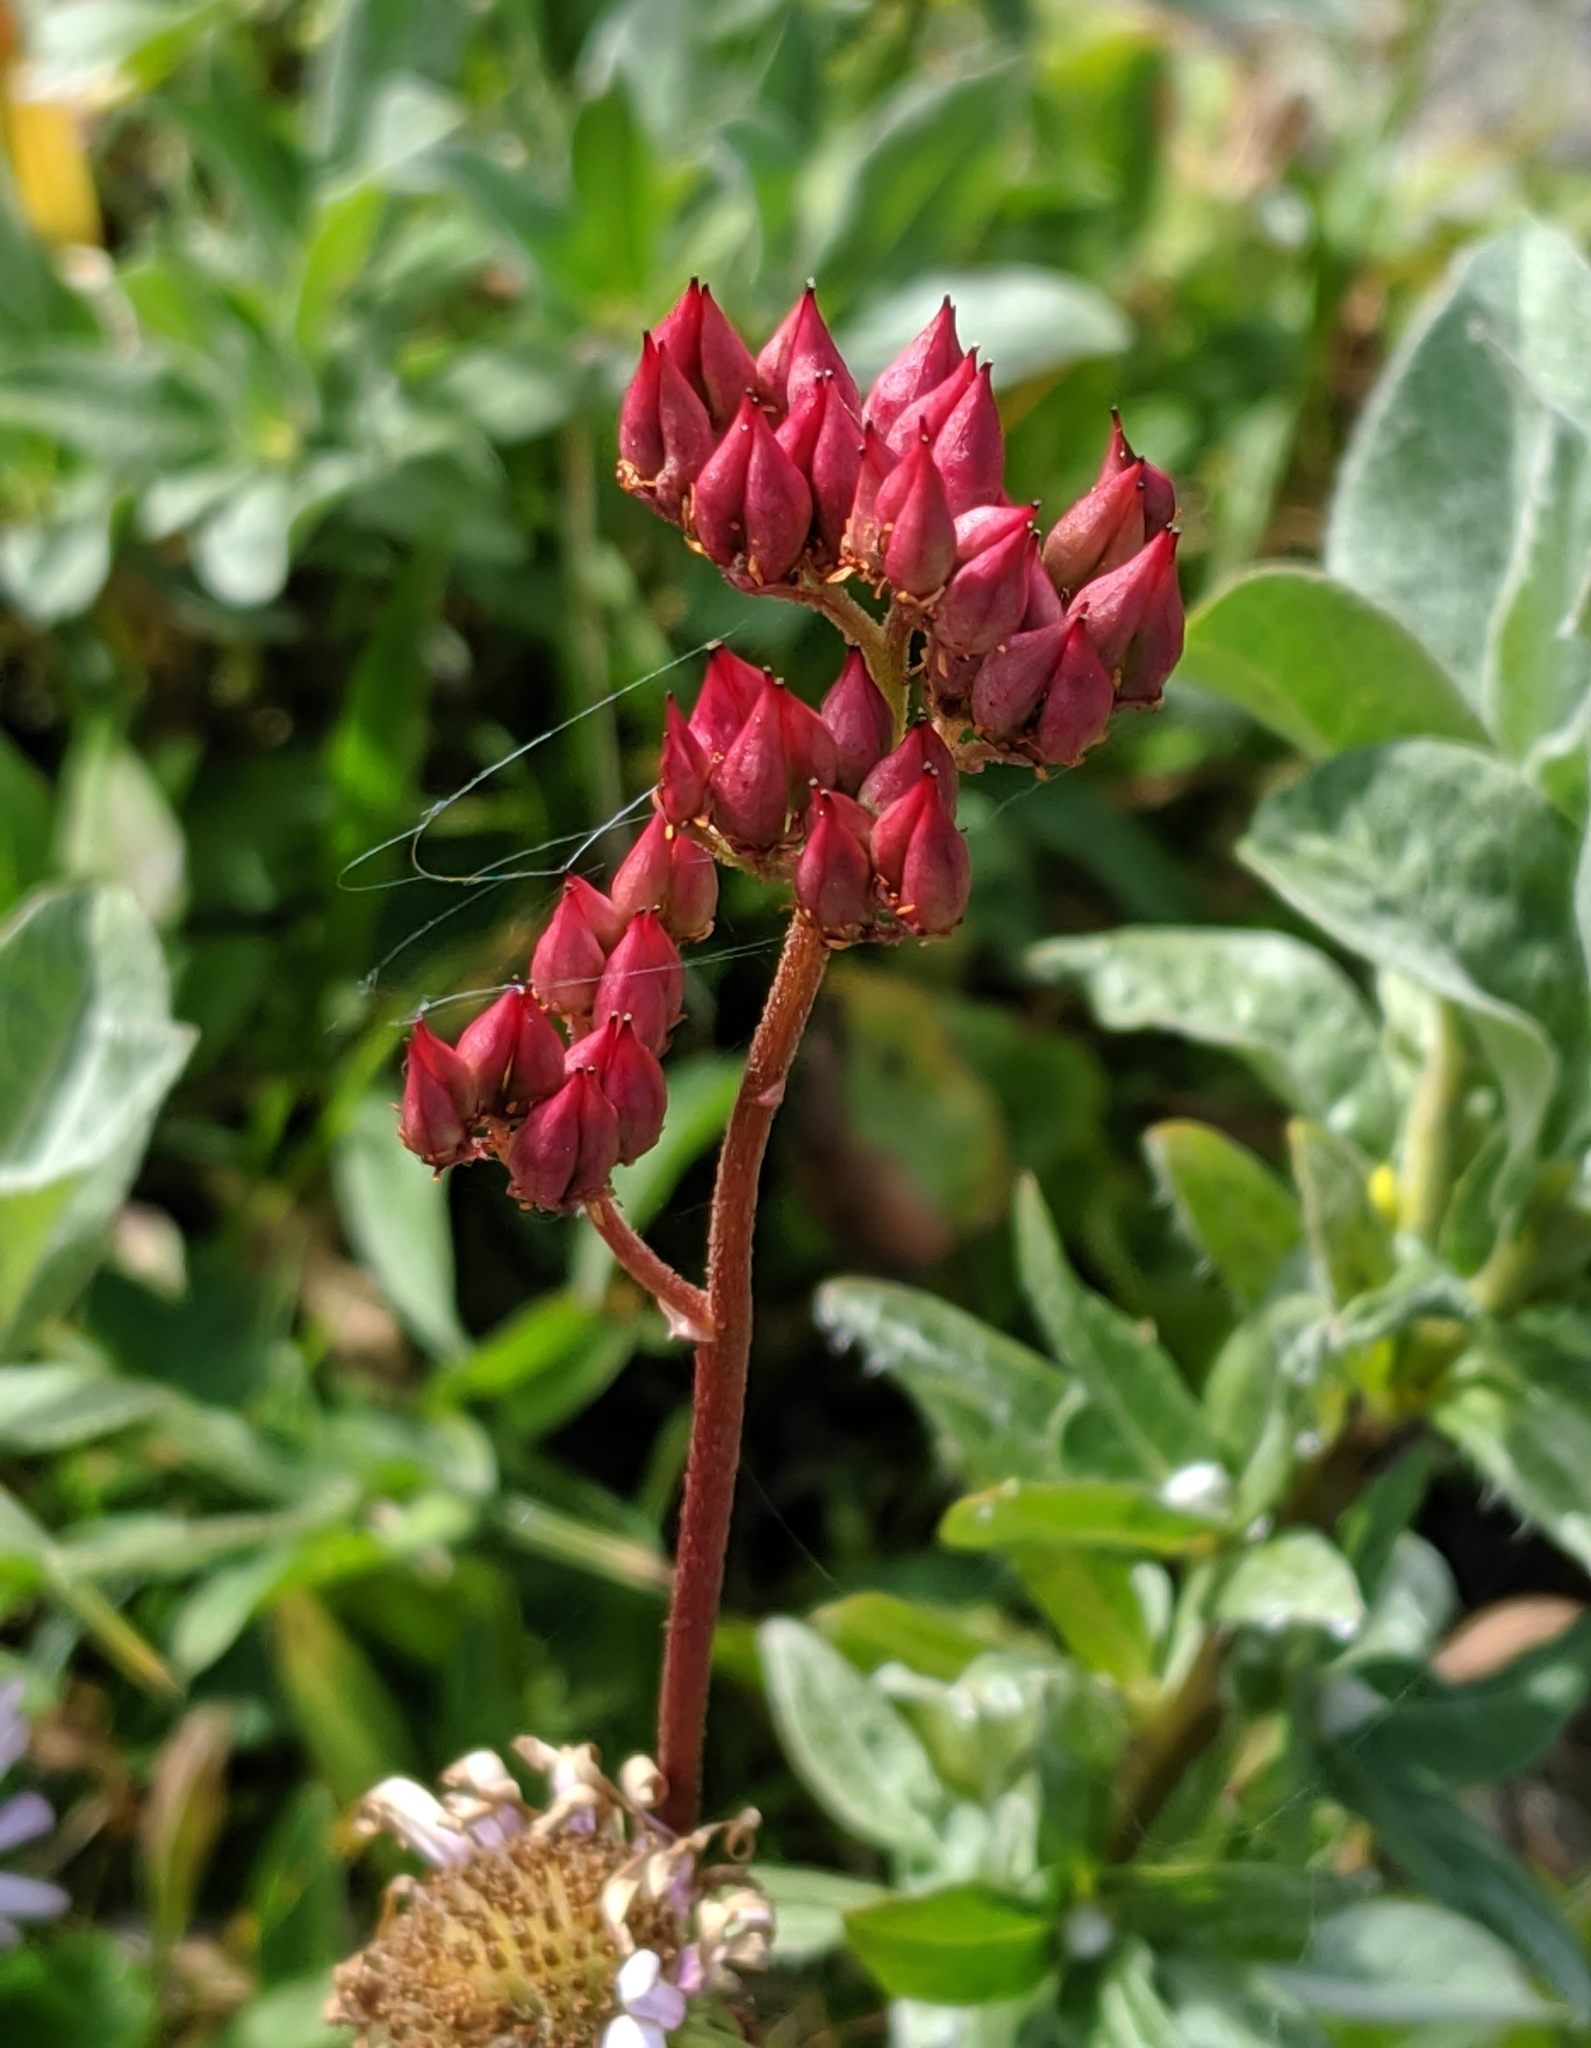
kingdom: Plantae
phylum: Tracheophyta
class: Magnoliopsida
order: Saxifragales
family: Saxifragaceae
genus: Leptarrhena
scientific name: Leptarrhena pyrolifolia
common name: Leatherleaf-saxifrage
